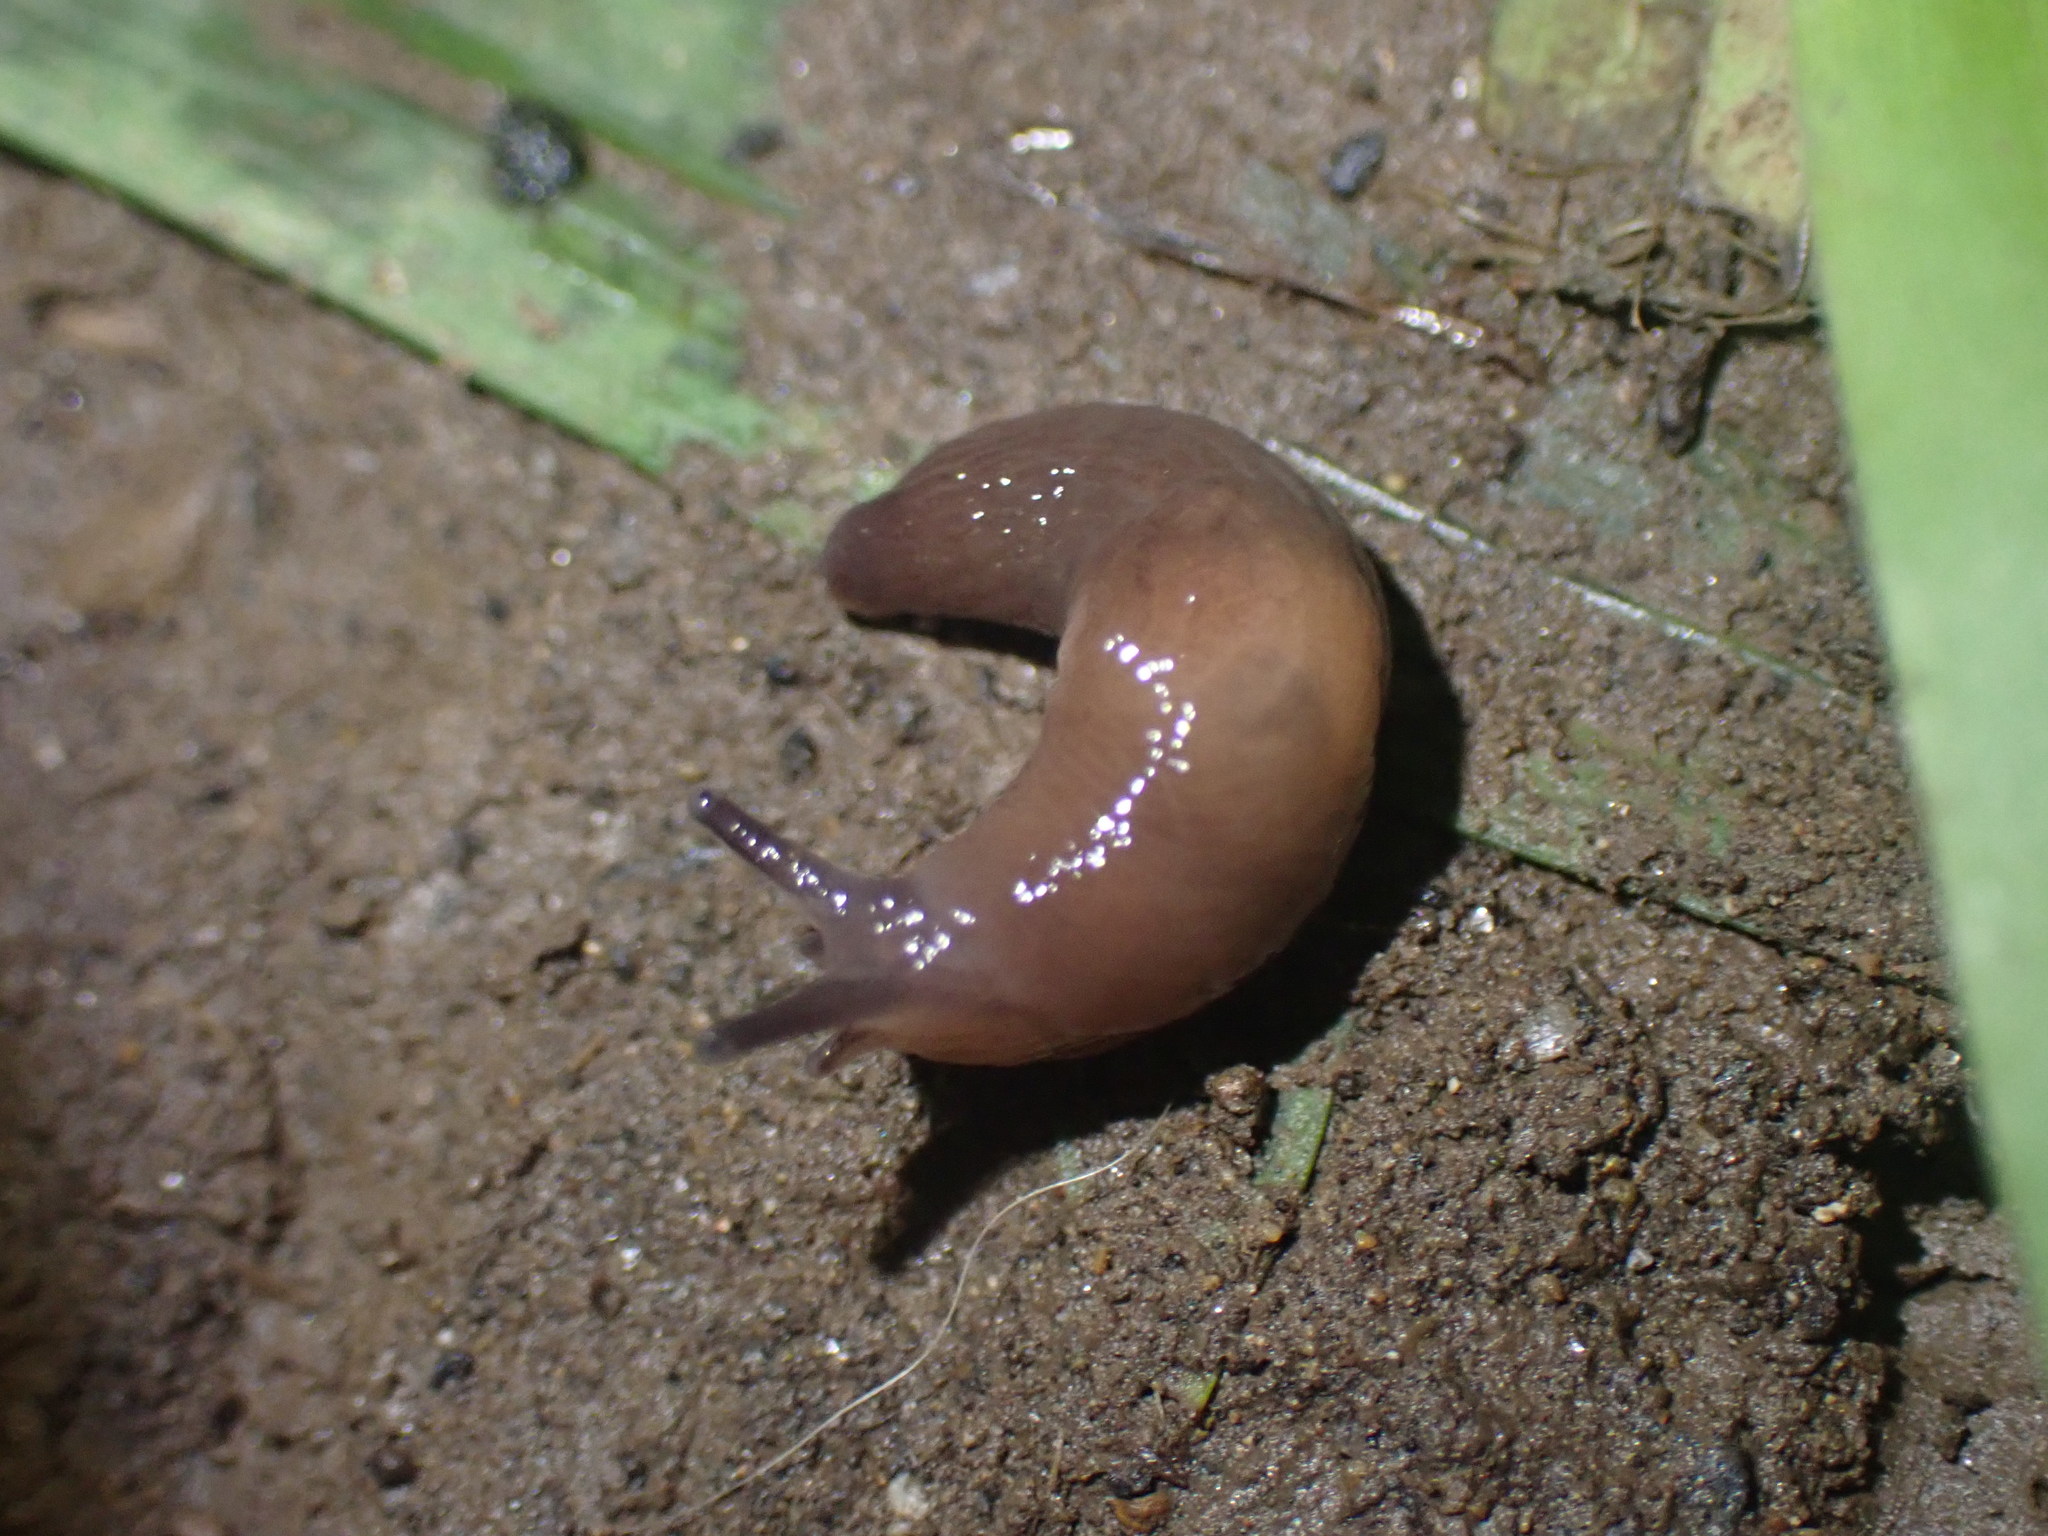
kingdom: Animalia
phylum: Mollusca
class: Gastropoda
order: Stylommatophora
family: Agriolimacidae
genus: Deroceras
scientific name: Deroceras invadens
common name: Caruana's slug
